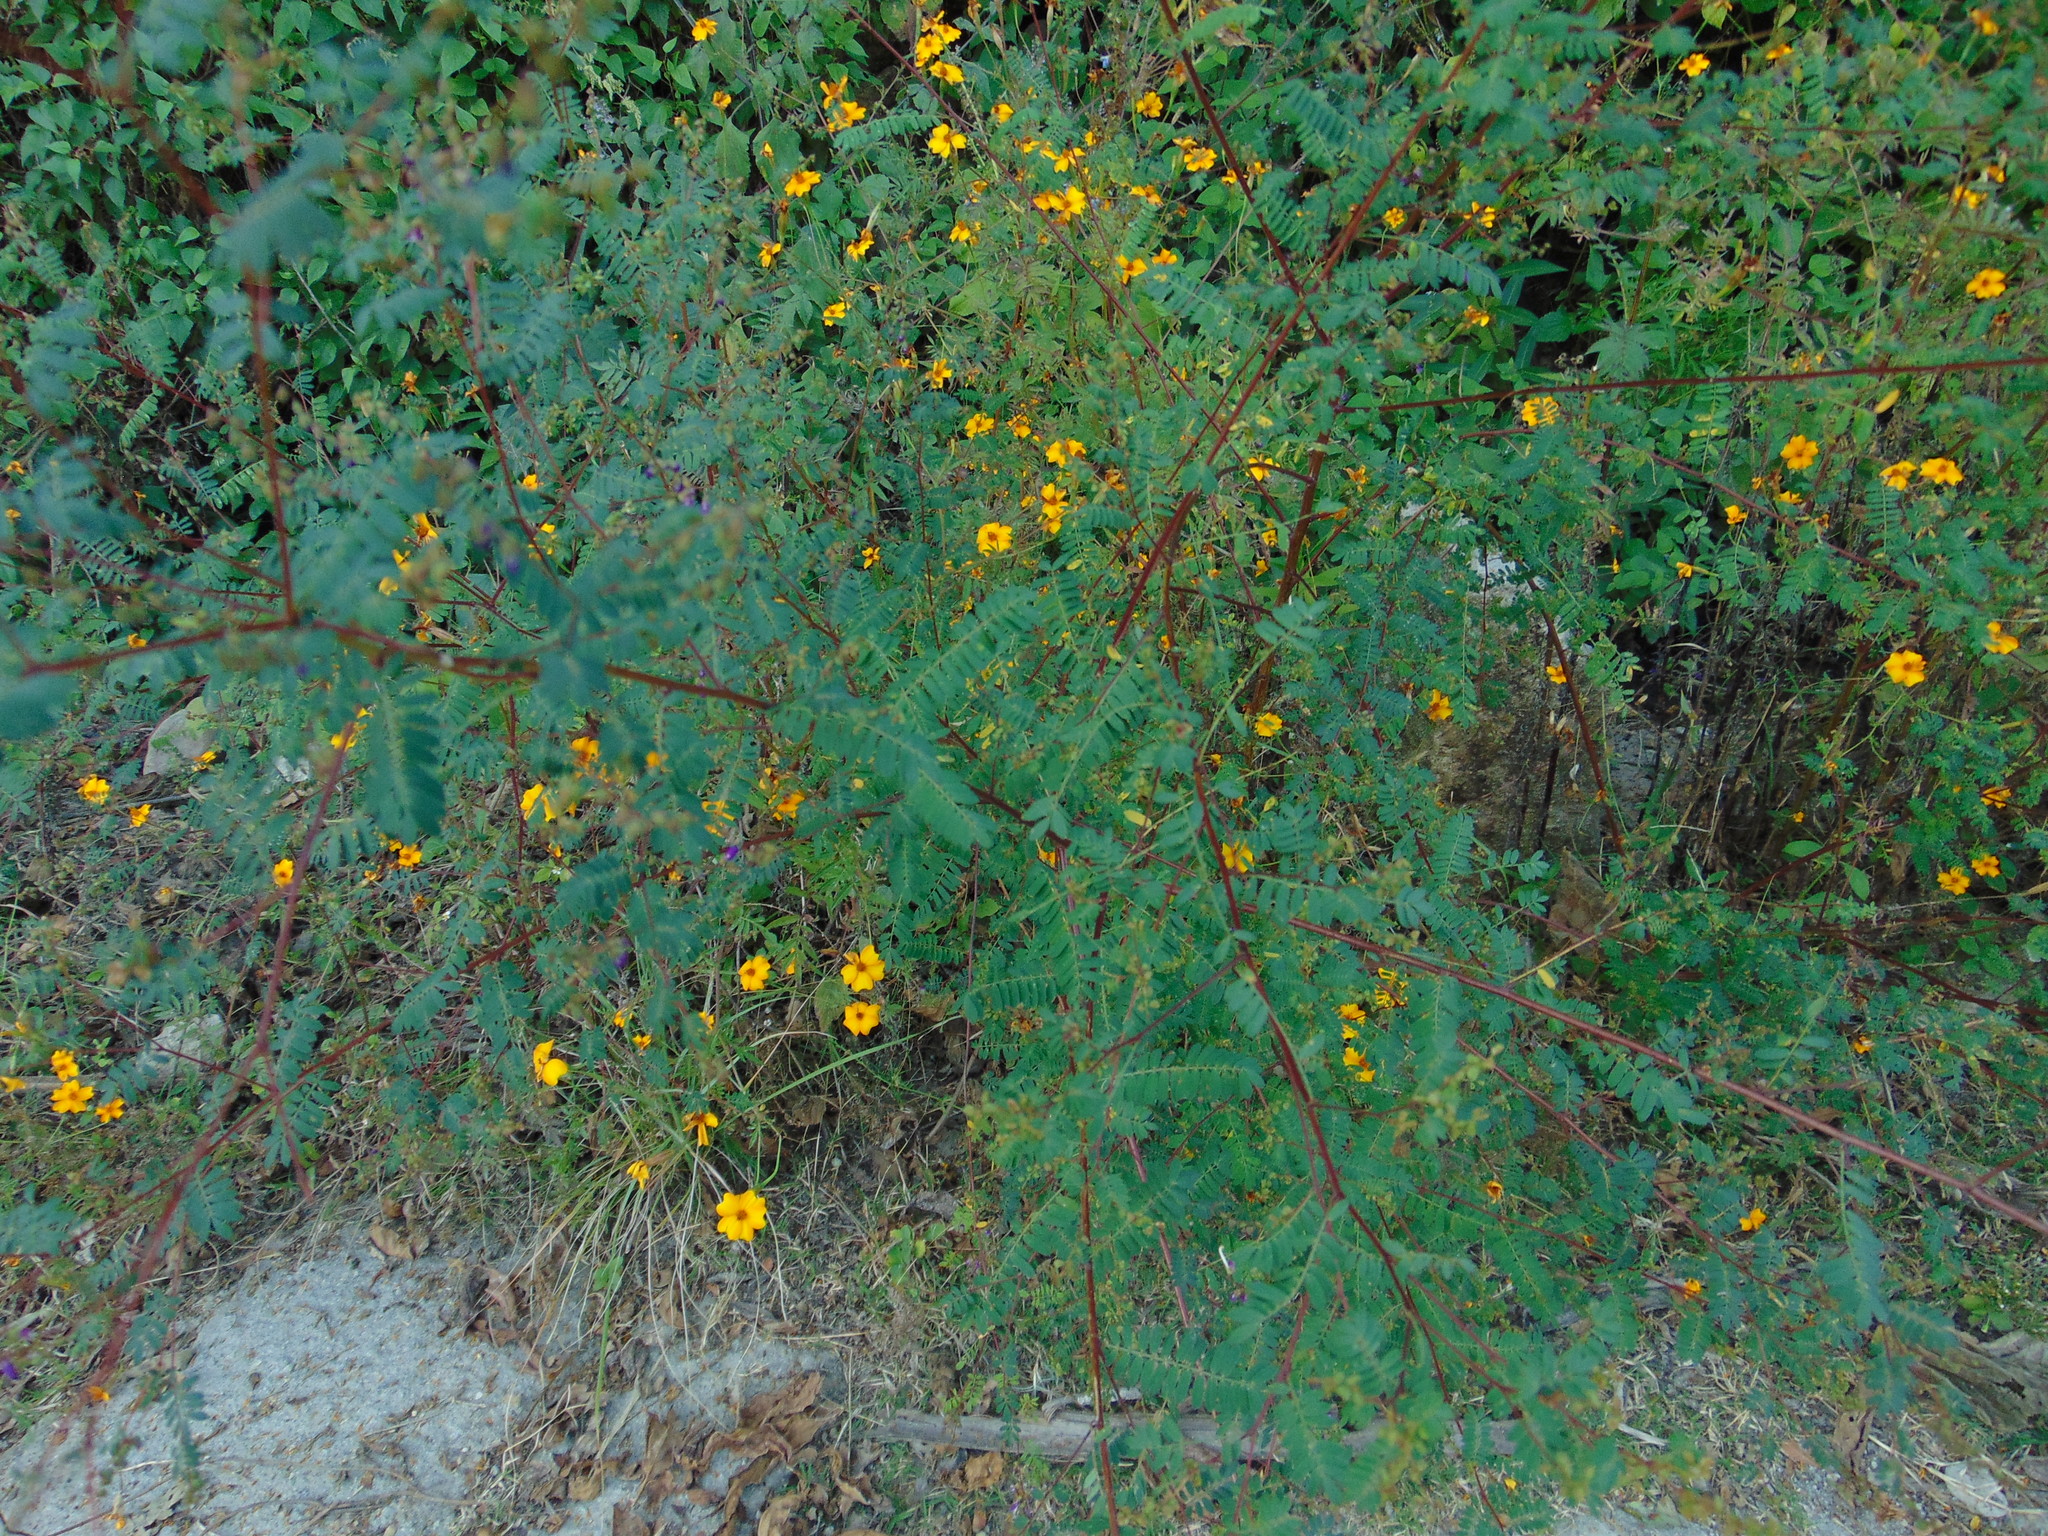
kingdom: Plantae
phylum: Tracheophyta
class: Magnoliopsida
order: Asterales
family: Asteraceae
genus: Tagetes
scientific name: Tagetes lunulata
